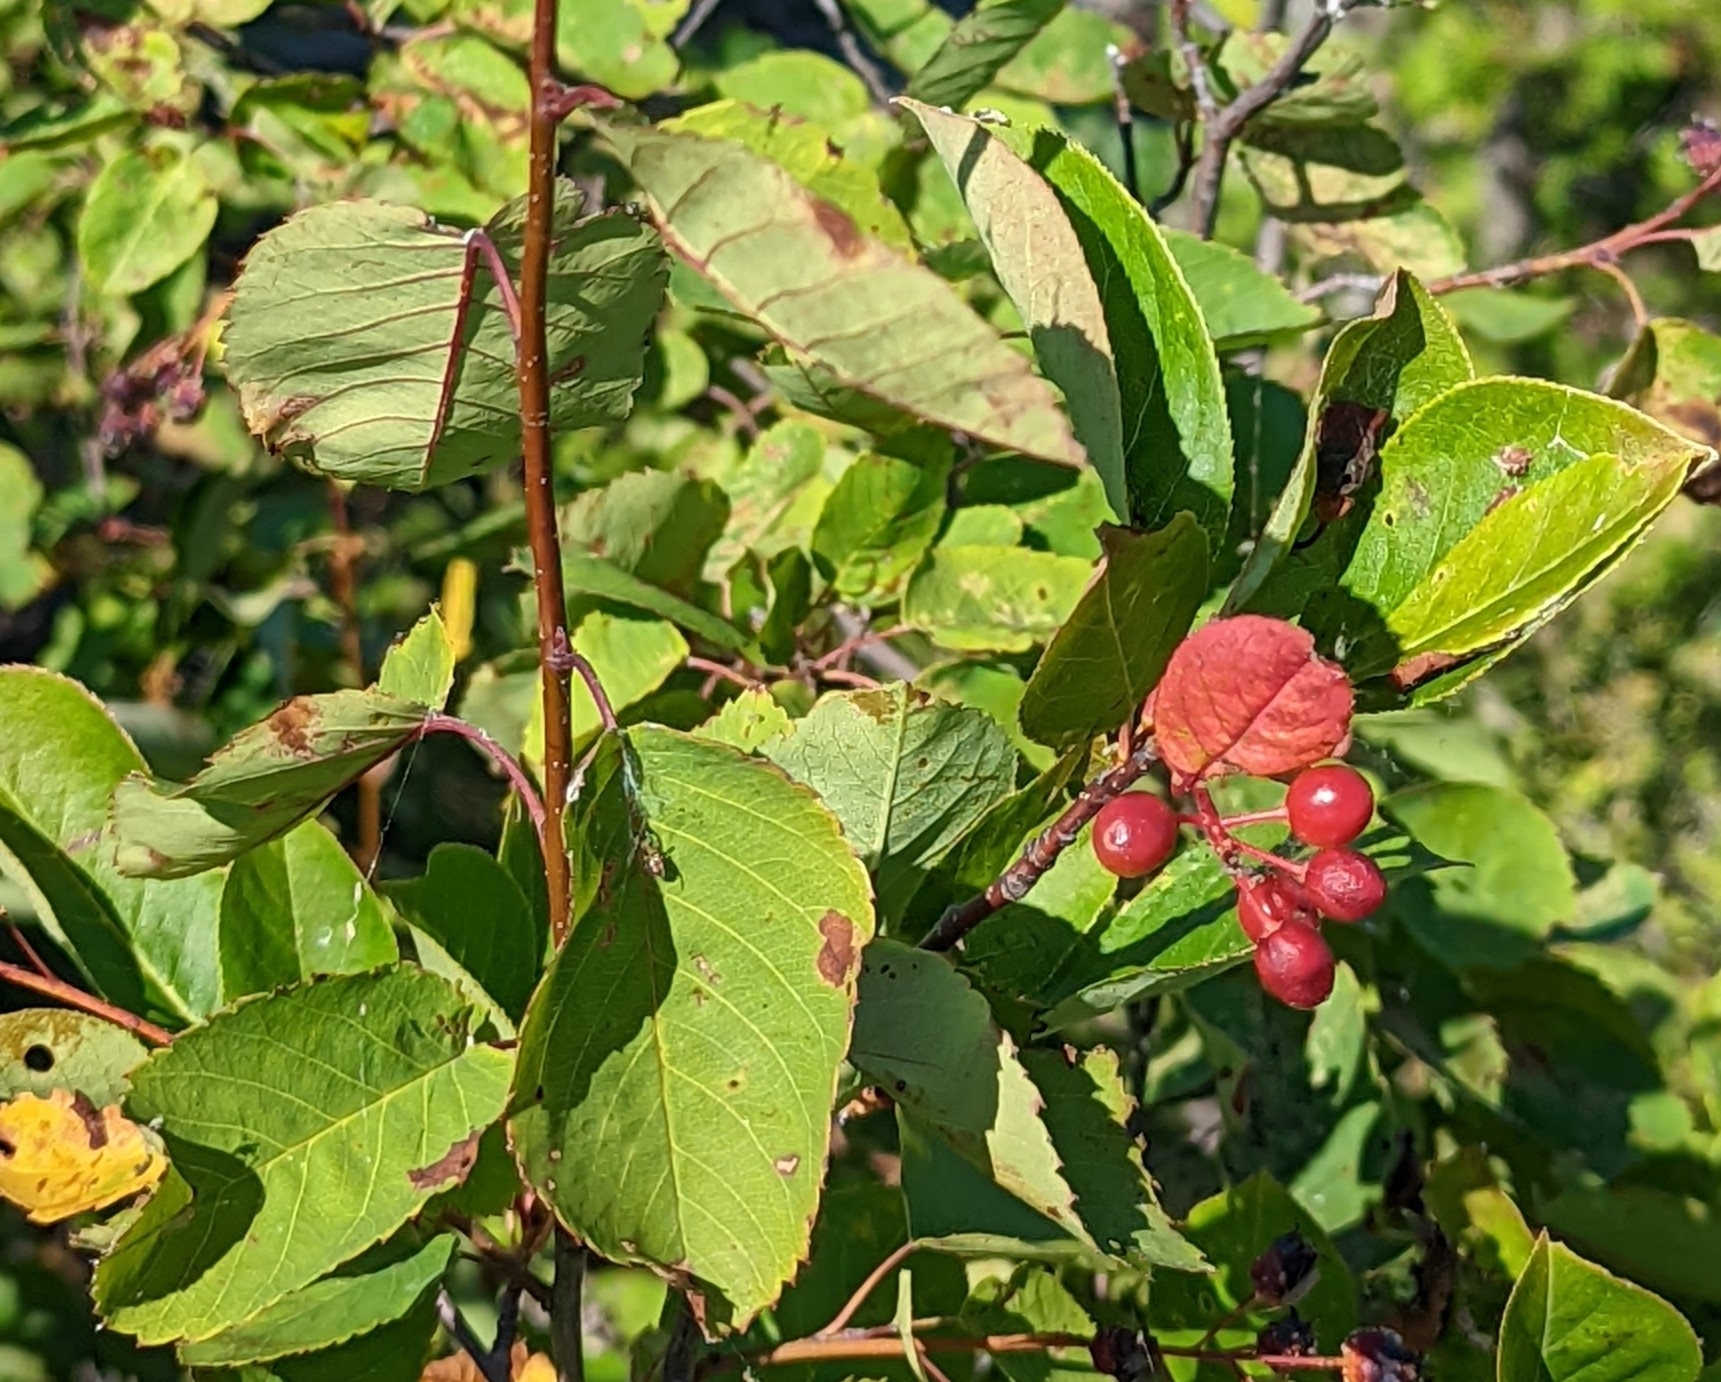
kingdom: Plantae
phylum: Tracheophyta
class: Magnoliopsida
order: Rosales
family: Rosaceae
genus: Prunus
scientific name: Prunus pensylvanica
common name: Pin cherry
